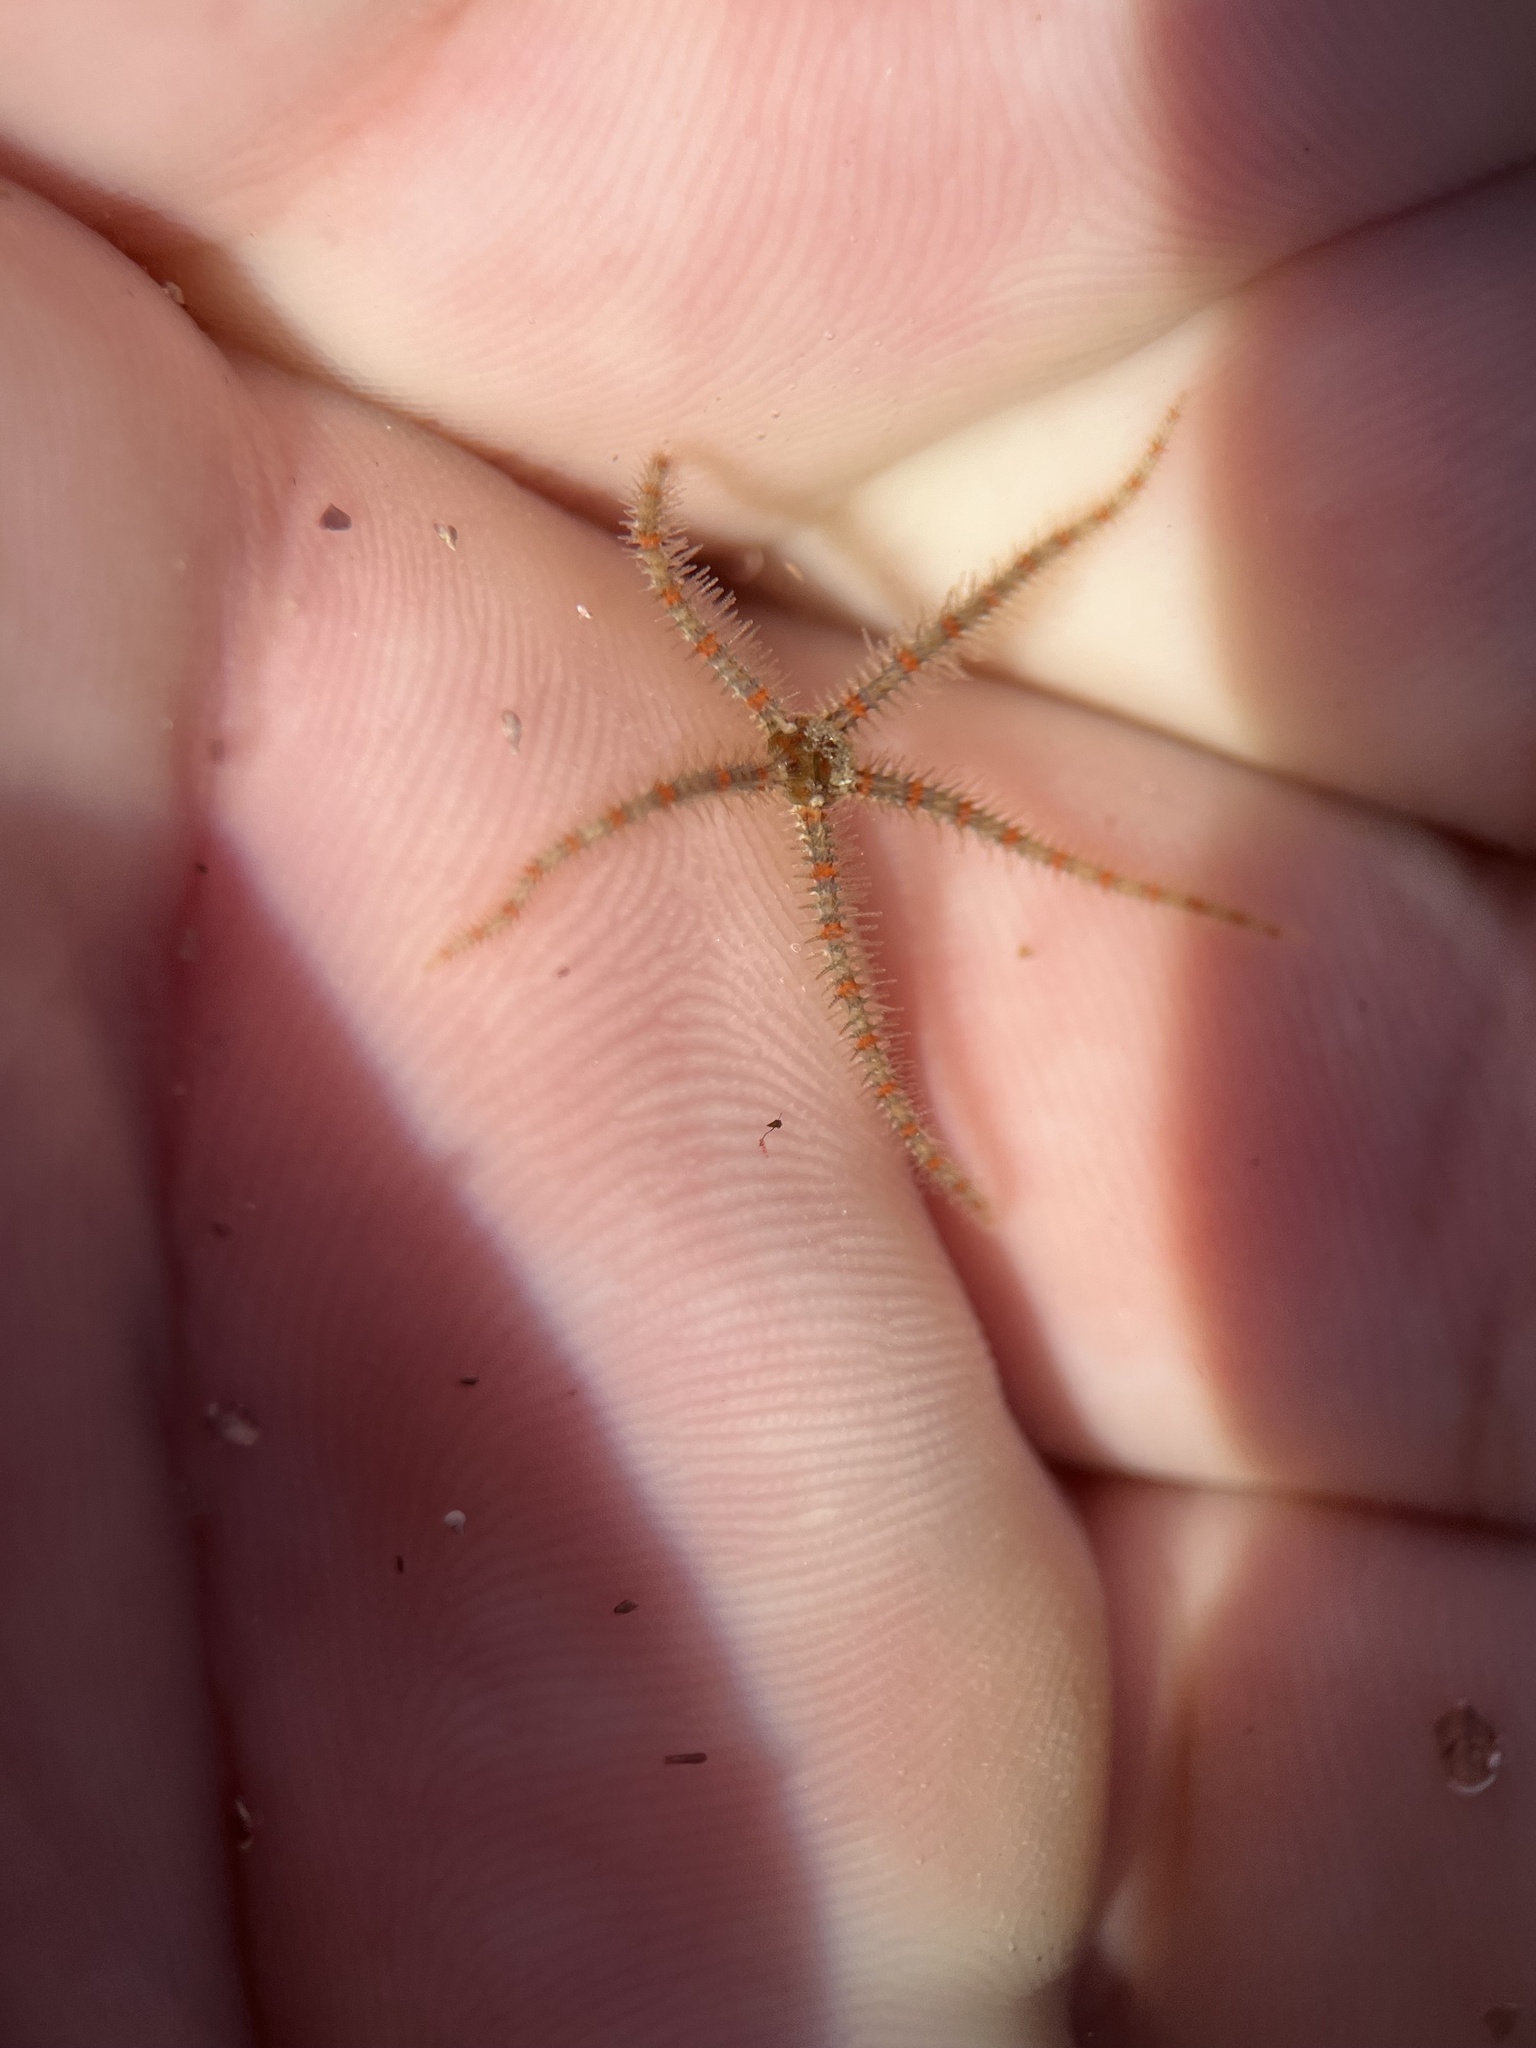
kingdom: Animalia
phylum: Echinodermata
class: Ophiuroidea
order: Amphilepidida
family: Ophiotrichidae
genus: Ophiothrix
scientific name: Ophiothrix spiculata
